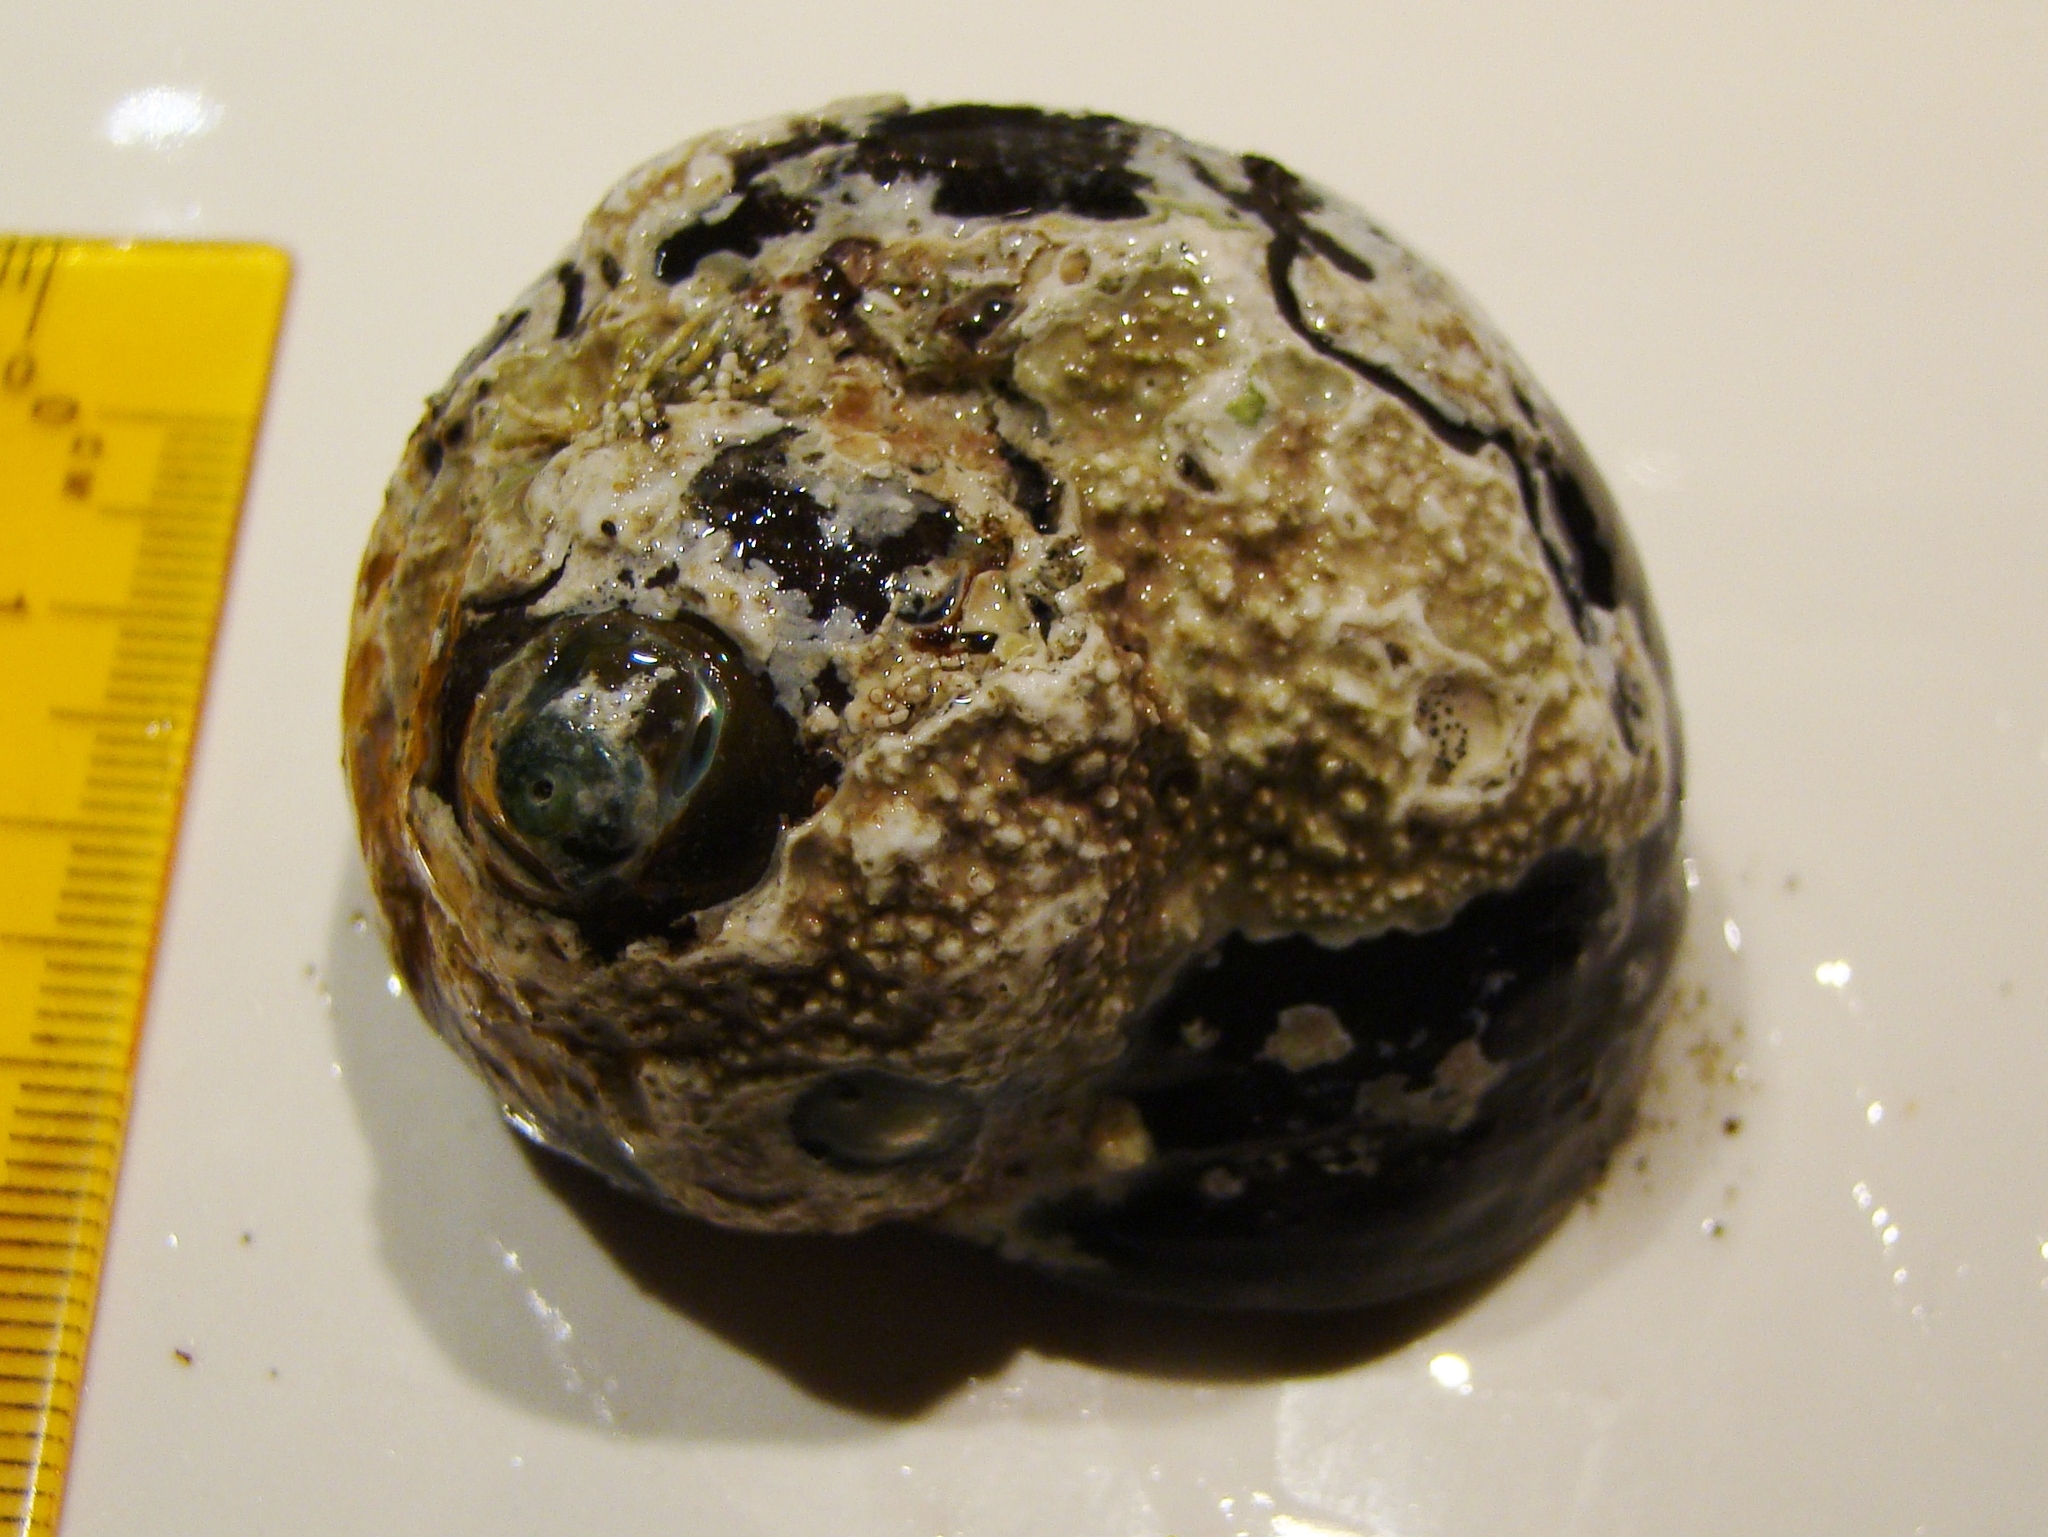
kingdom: Animalia
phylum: Mollusca
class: Gastropoda
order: Trochida
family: Turbinidae
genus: Lunella
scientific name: Lunella smaragda
